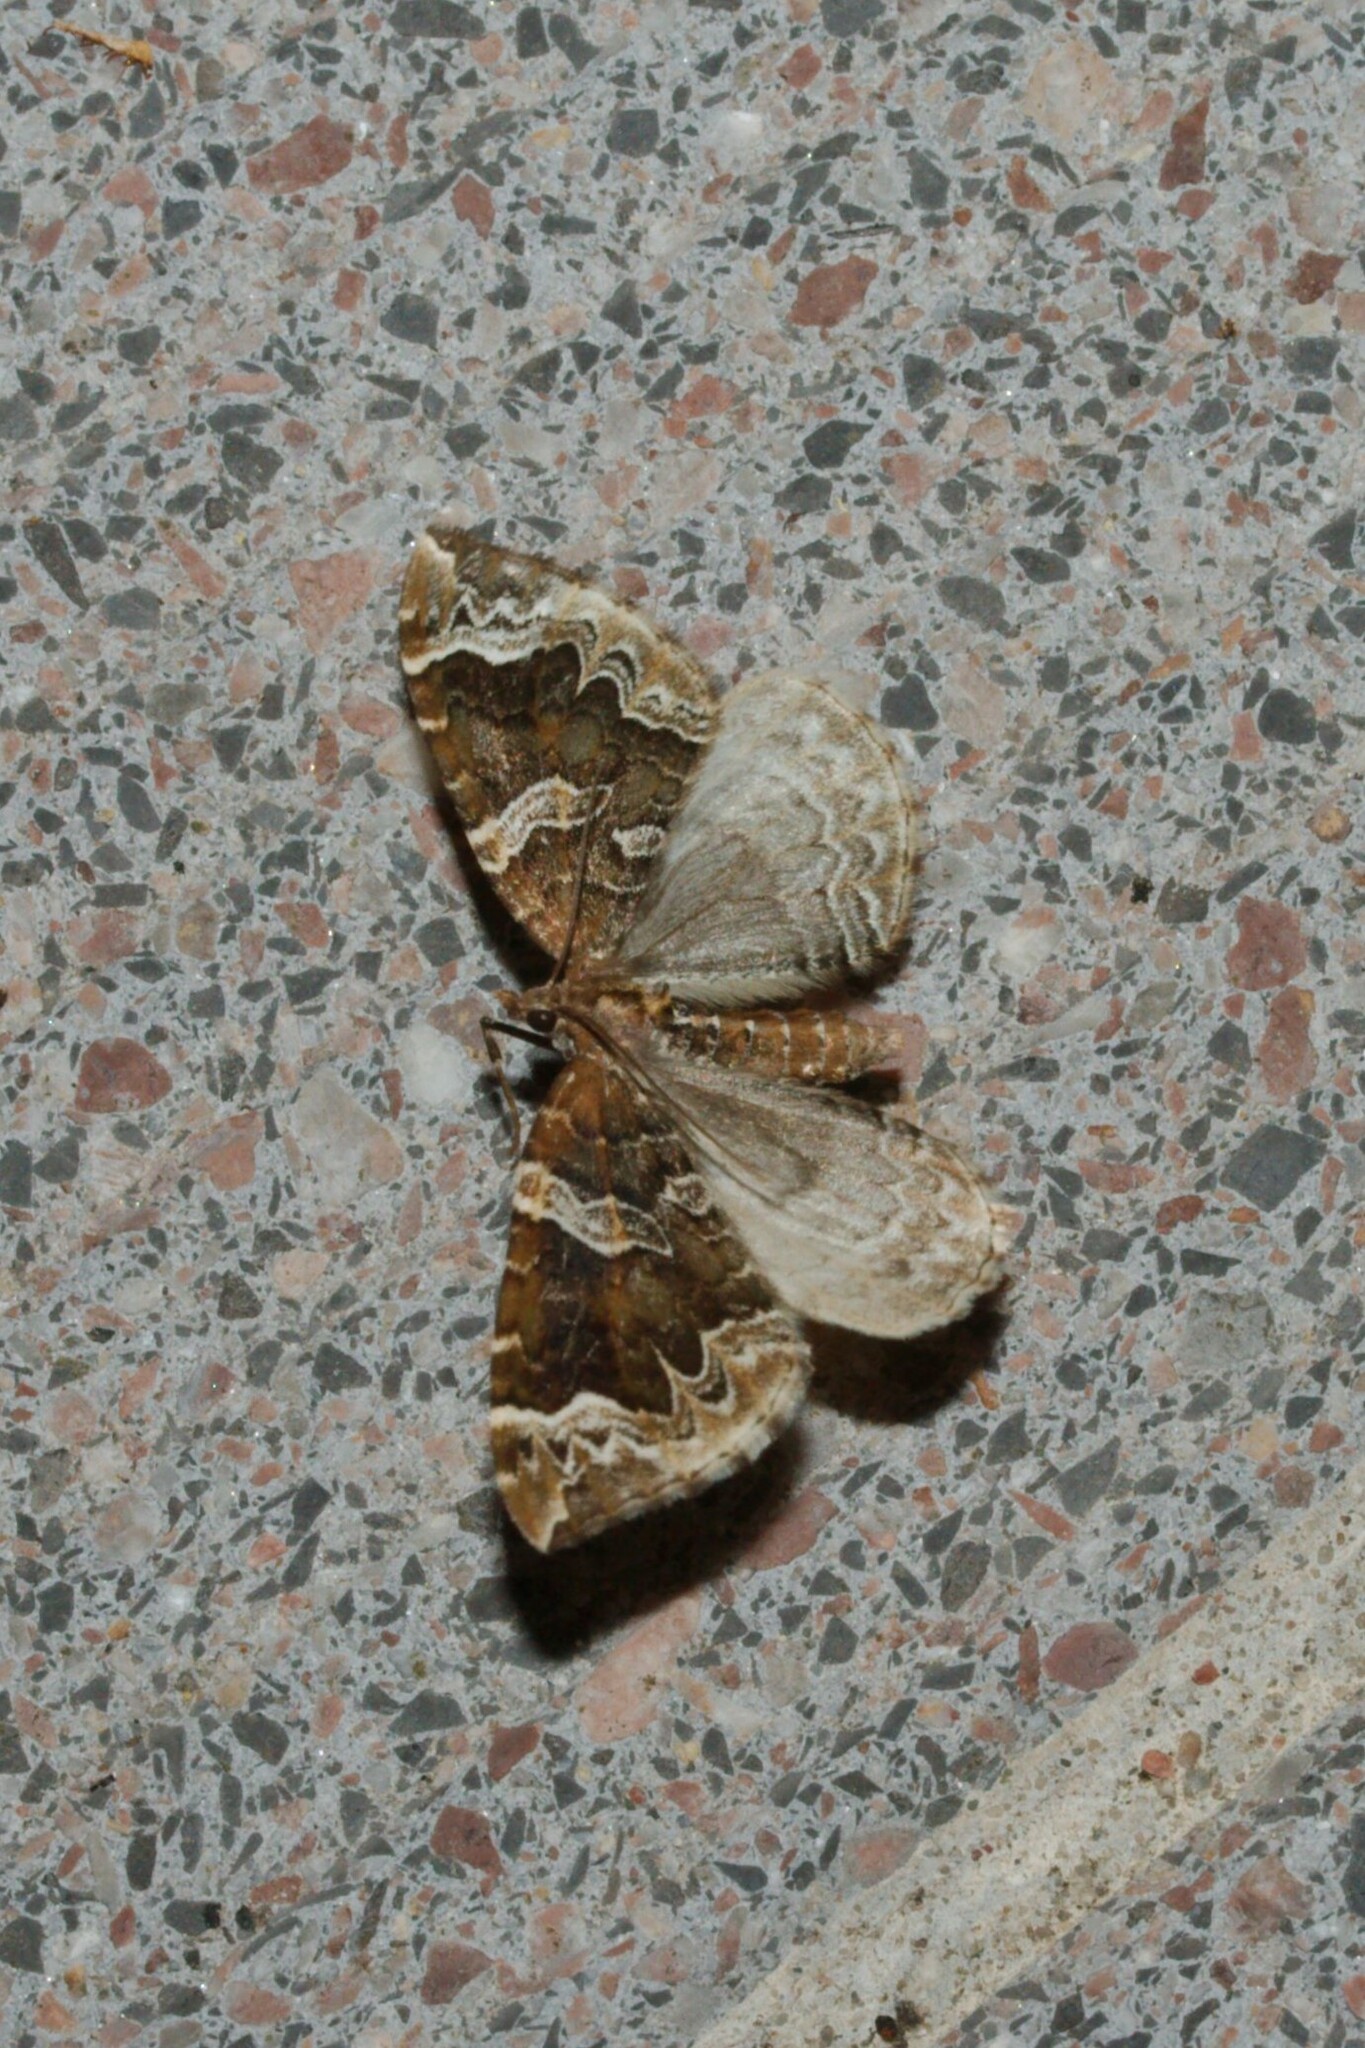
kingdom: Animalia
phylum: Arthropoda
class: Insecta
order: Lepidoptera
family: Geometridae
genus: Eulithis
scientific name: Eulithis prunata
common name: Phoenix
